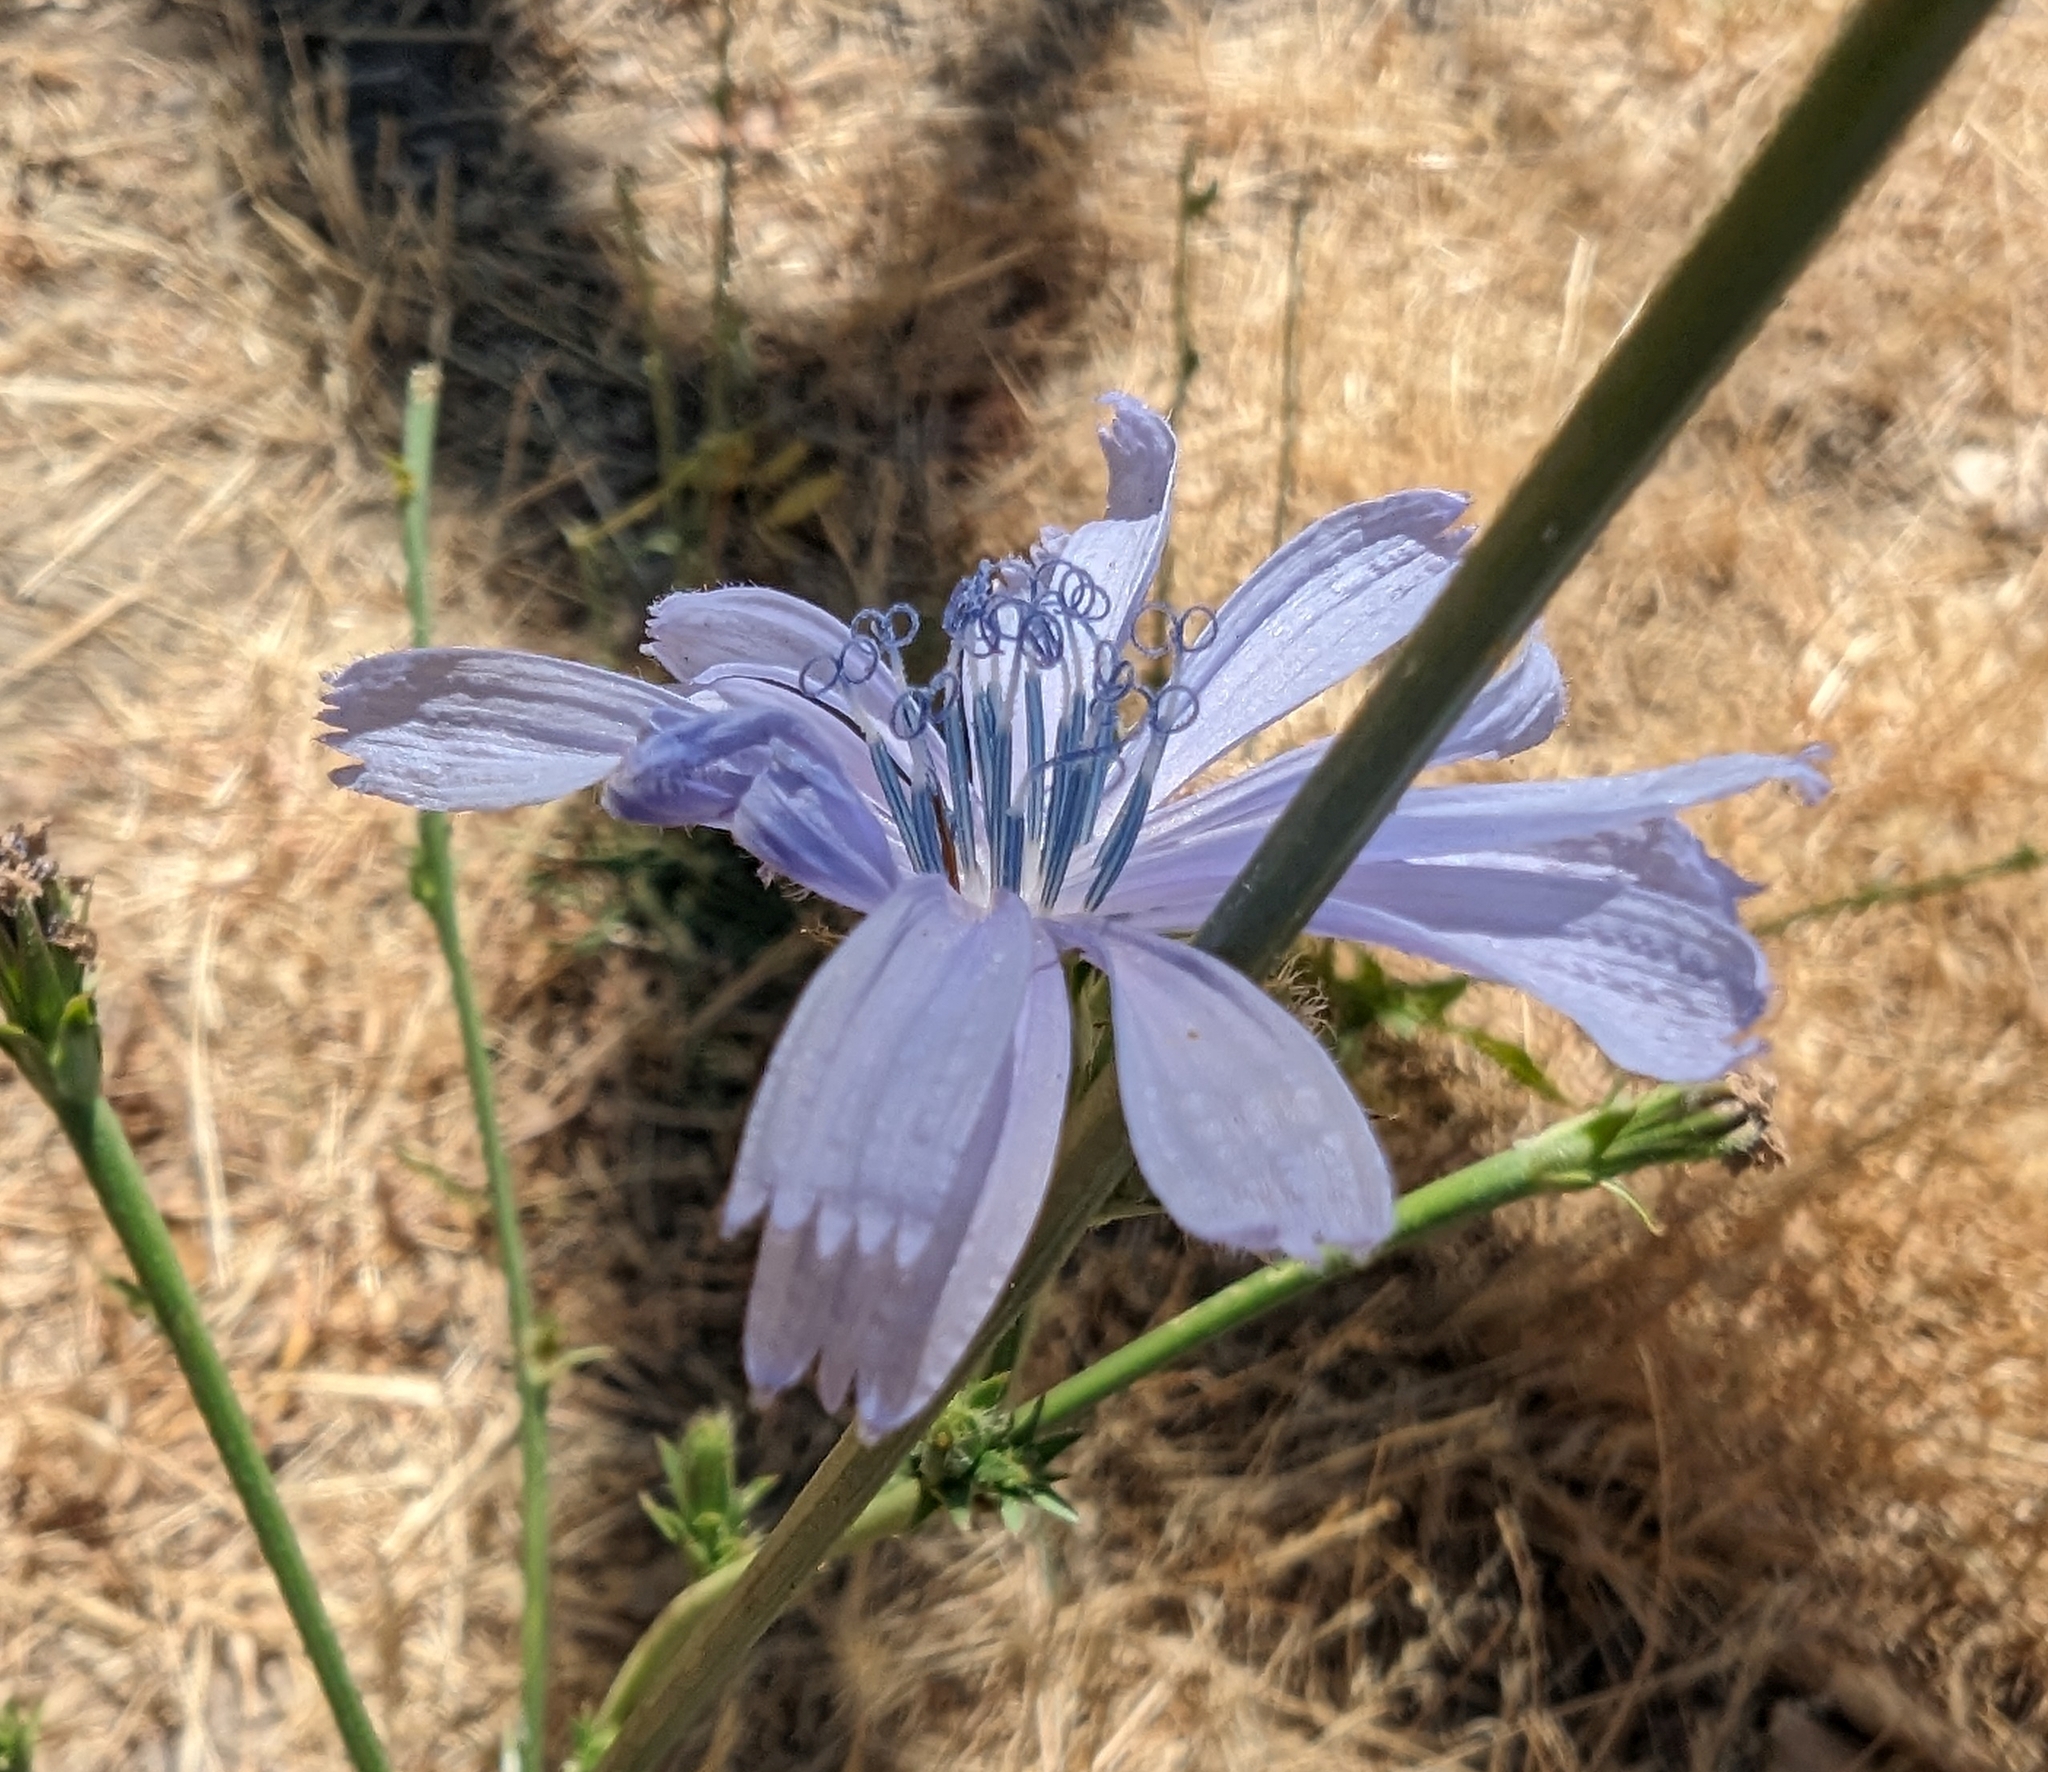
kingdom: Plantae
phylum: Tracheophyta
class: Magnoliopsida
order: Asterales
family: Asteraceae
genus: Cichorium
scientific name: Cichorium intybus
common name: Chicory
